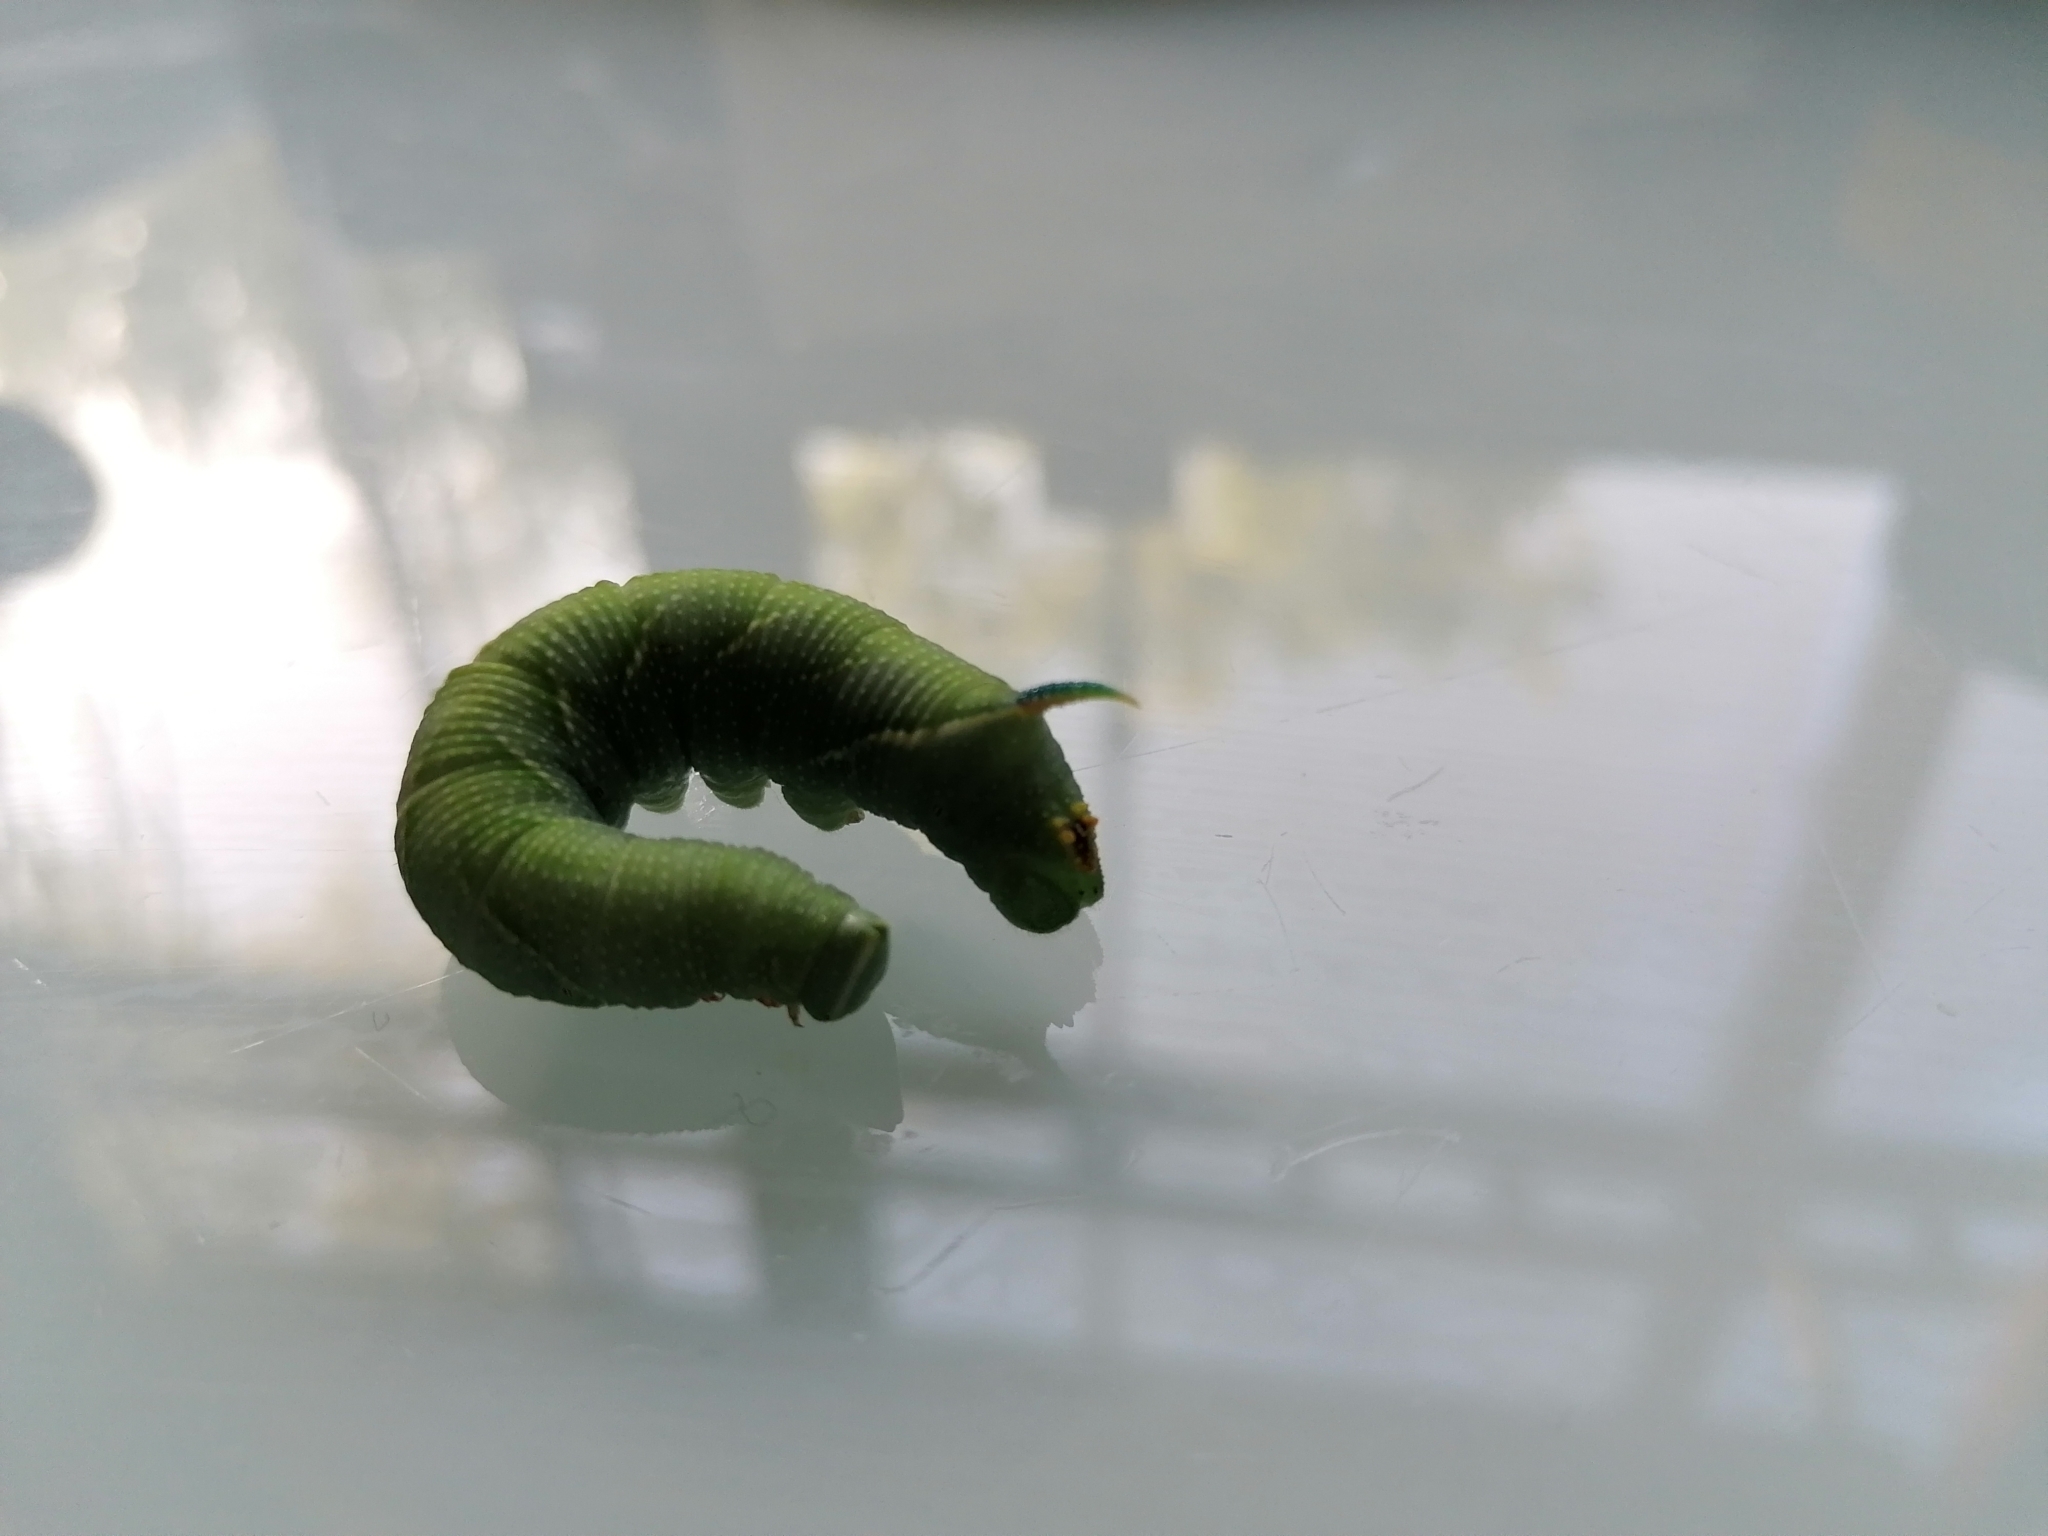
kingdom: Animalia
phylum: Arthropoda
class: Insecta
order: Lepidoptera
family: Sphingidae
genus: Mimas
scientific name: Mimas tiliae
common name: Lime hawk-moth
